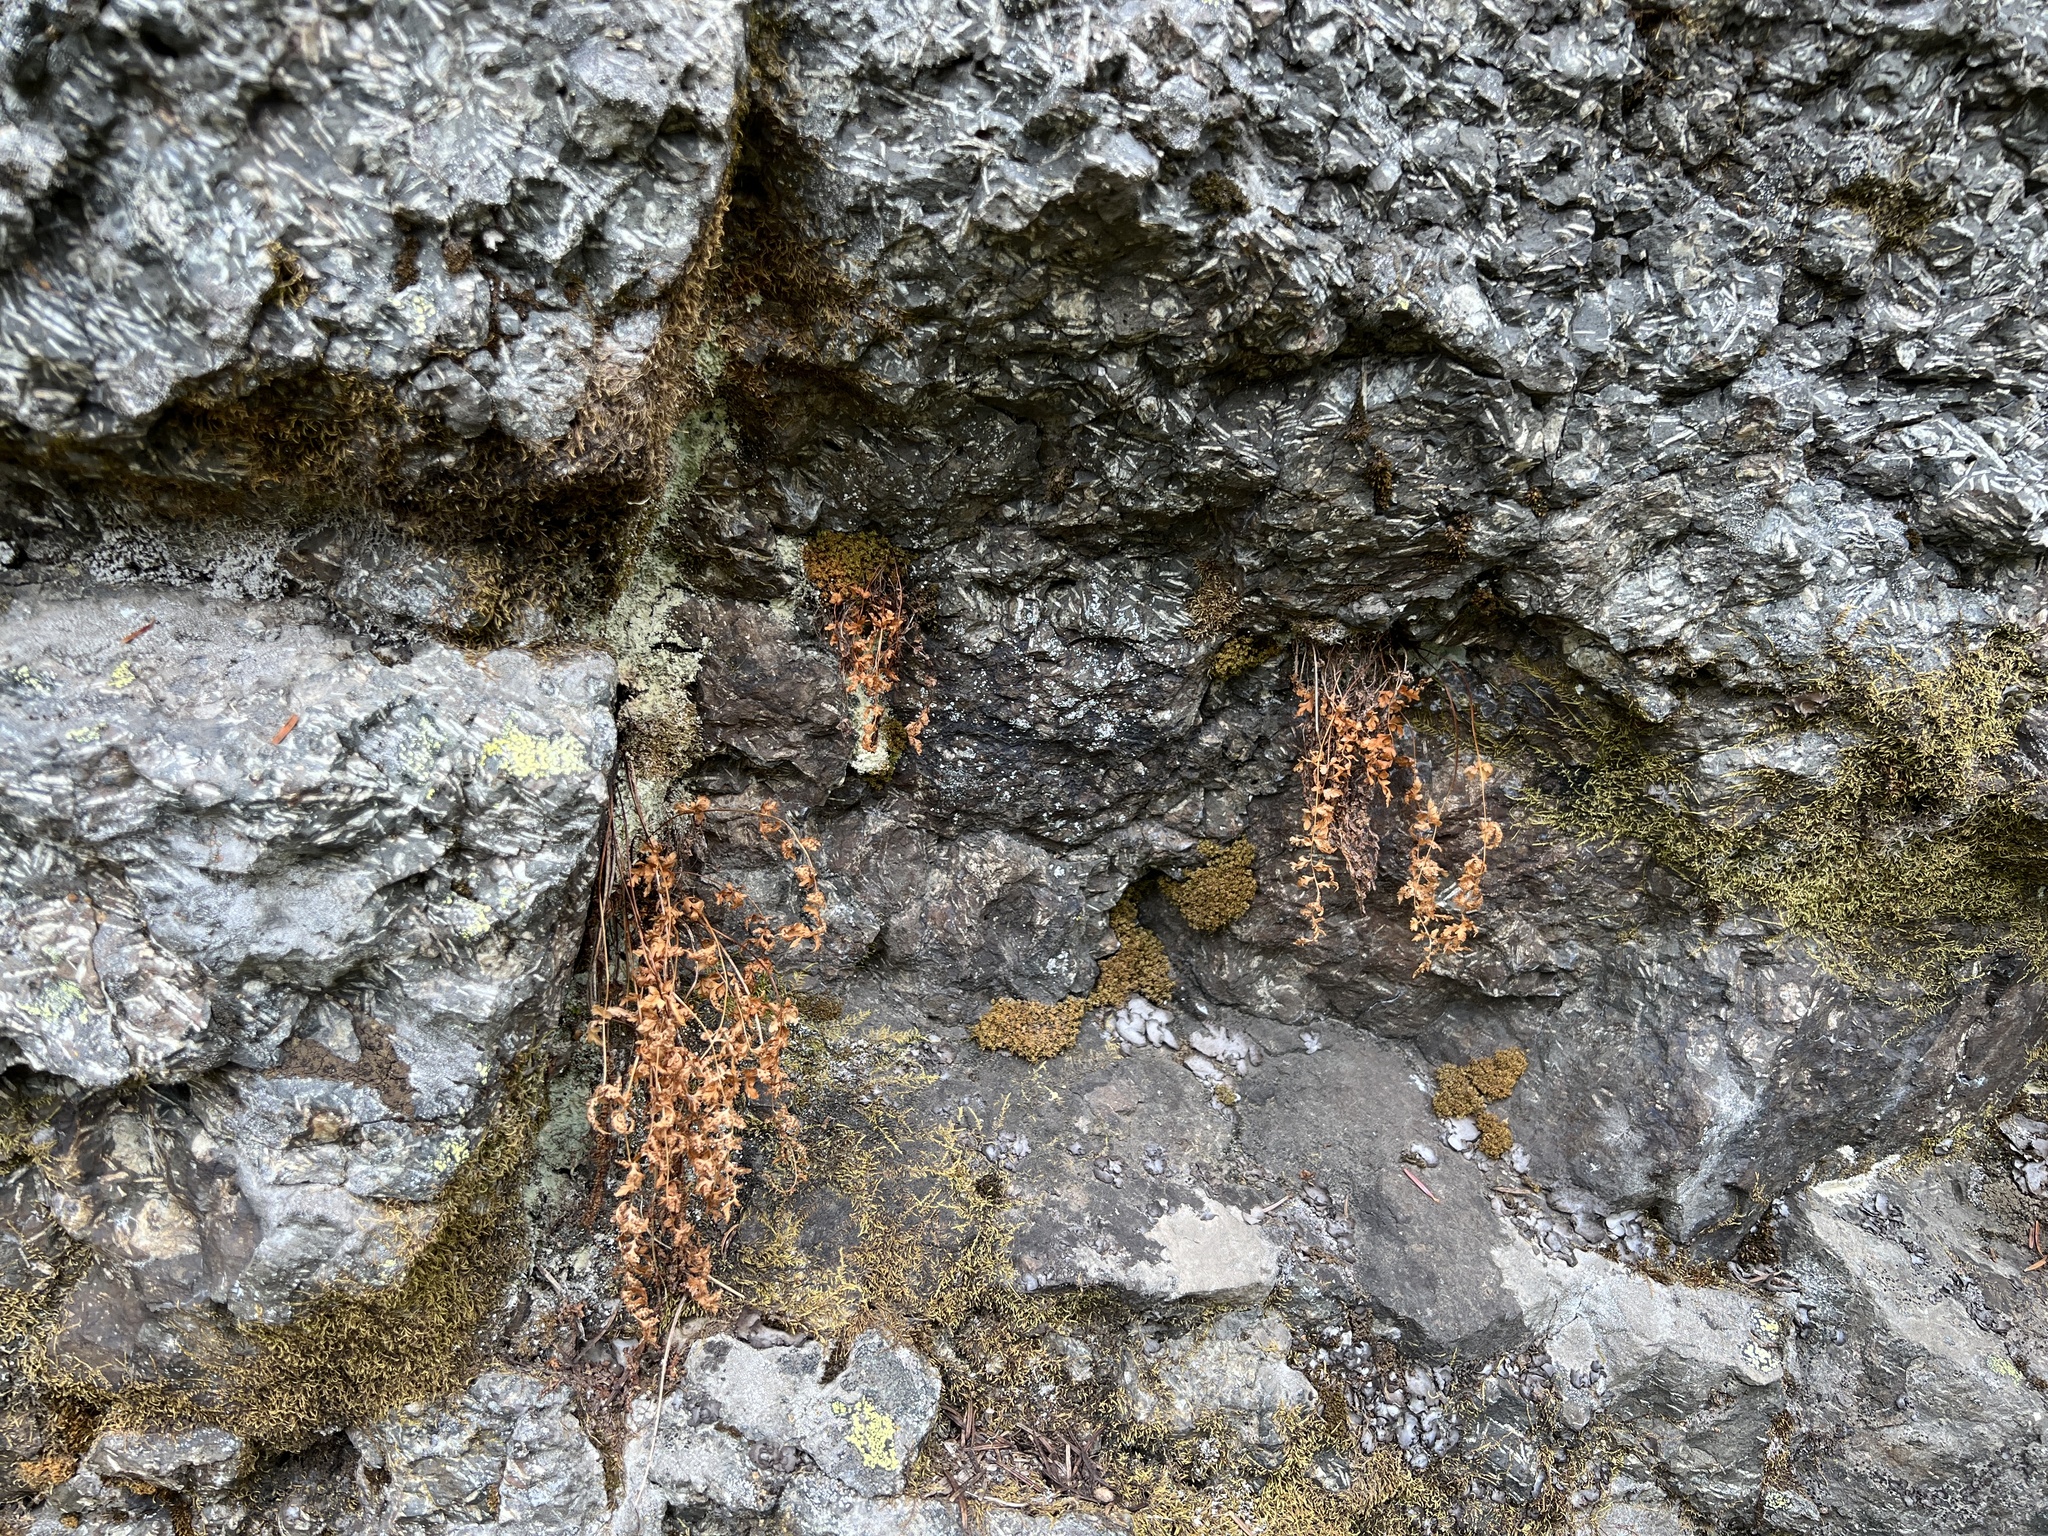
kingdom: Plantae
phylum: Tracheophyta
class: Polypodiopsida
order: Polypodiales
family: Cystopteridaceae
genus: Cystopteris
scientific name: Cystopteris fragilis
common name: Brittle bladder fern
